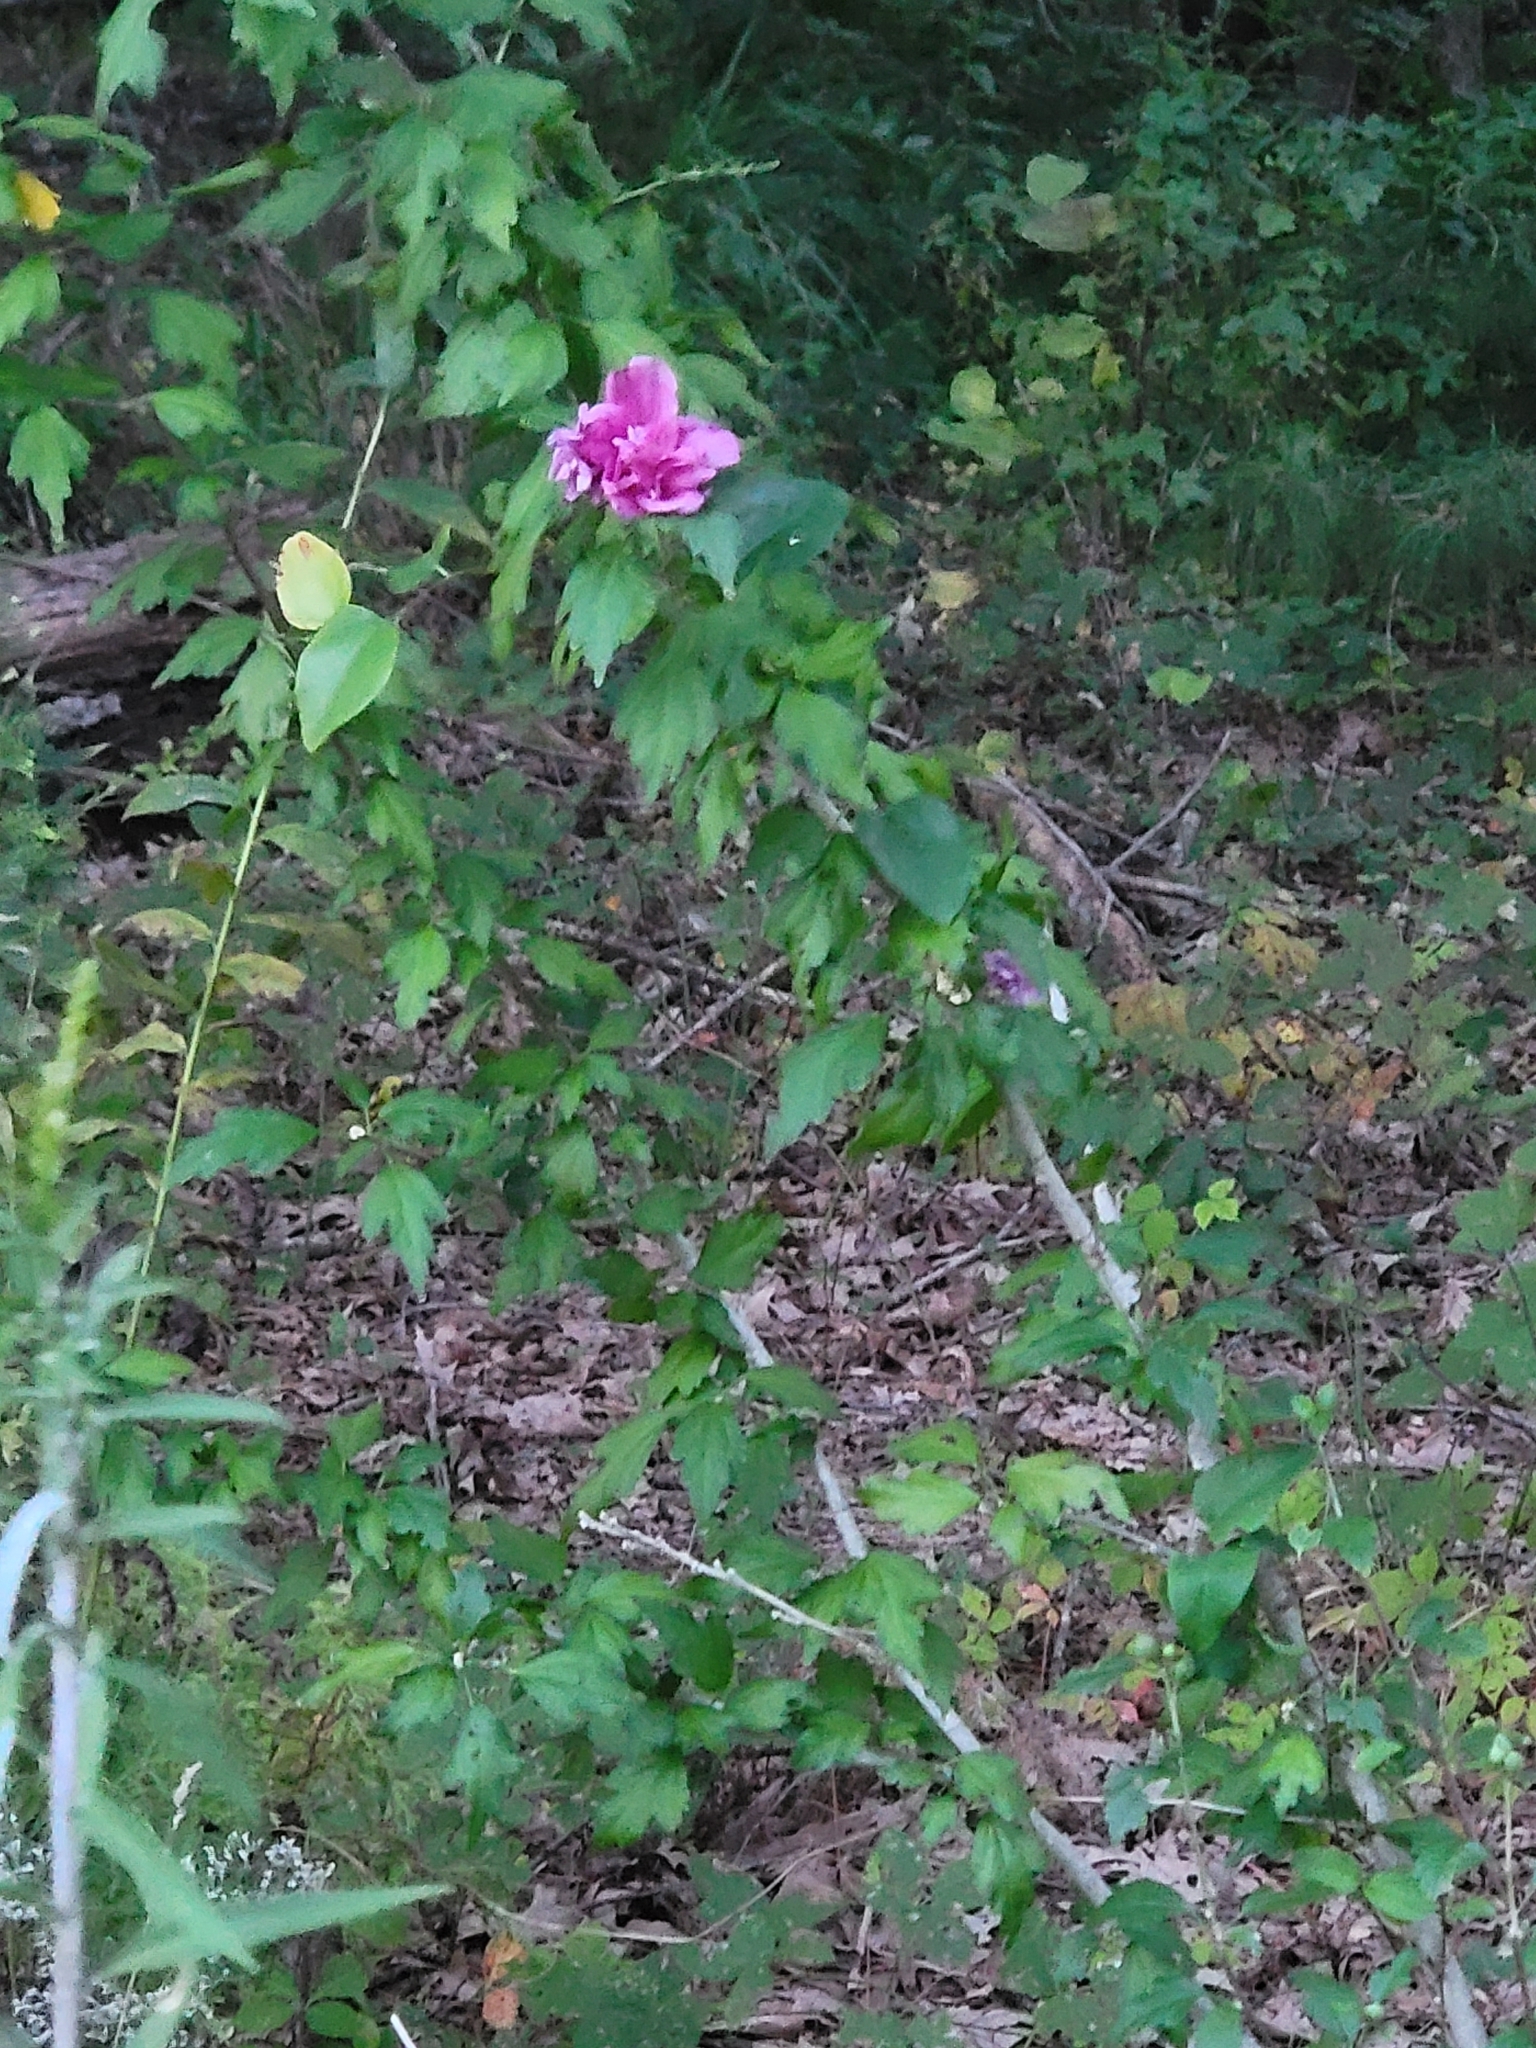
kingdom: Plantae
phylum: Tracheophyta
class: Magnoliopsida
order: Malvales
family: Malvaceae
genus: Hibiscus
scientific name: Hibiscus syriacus
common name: Syrian ketmia
